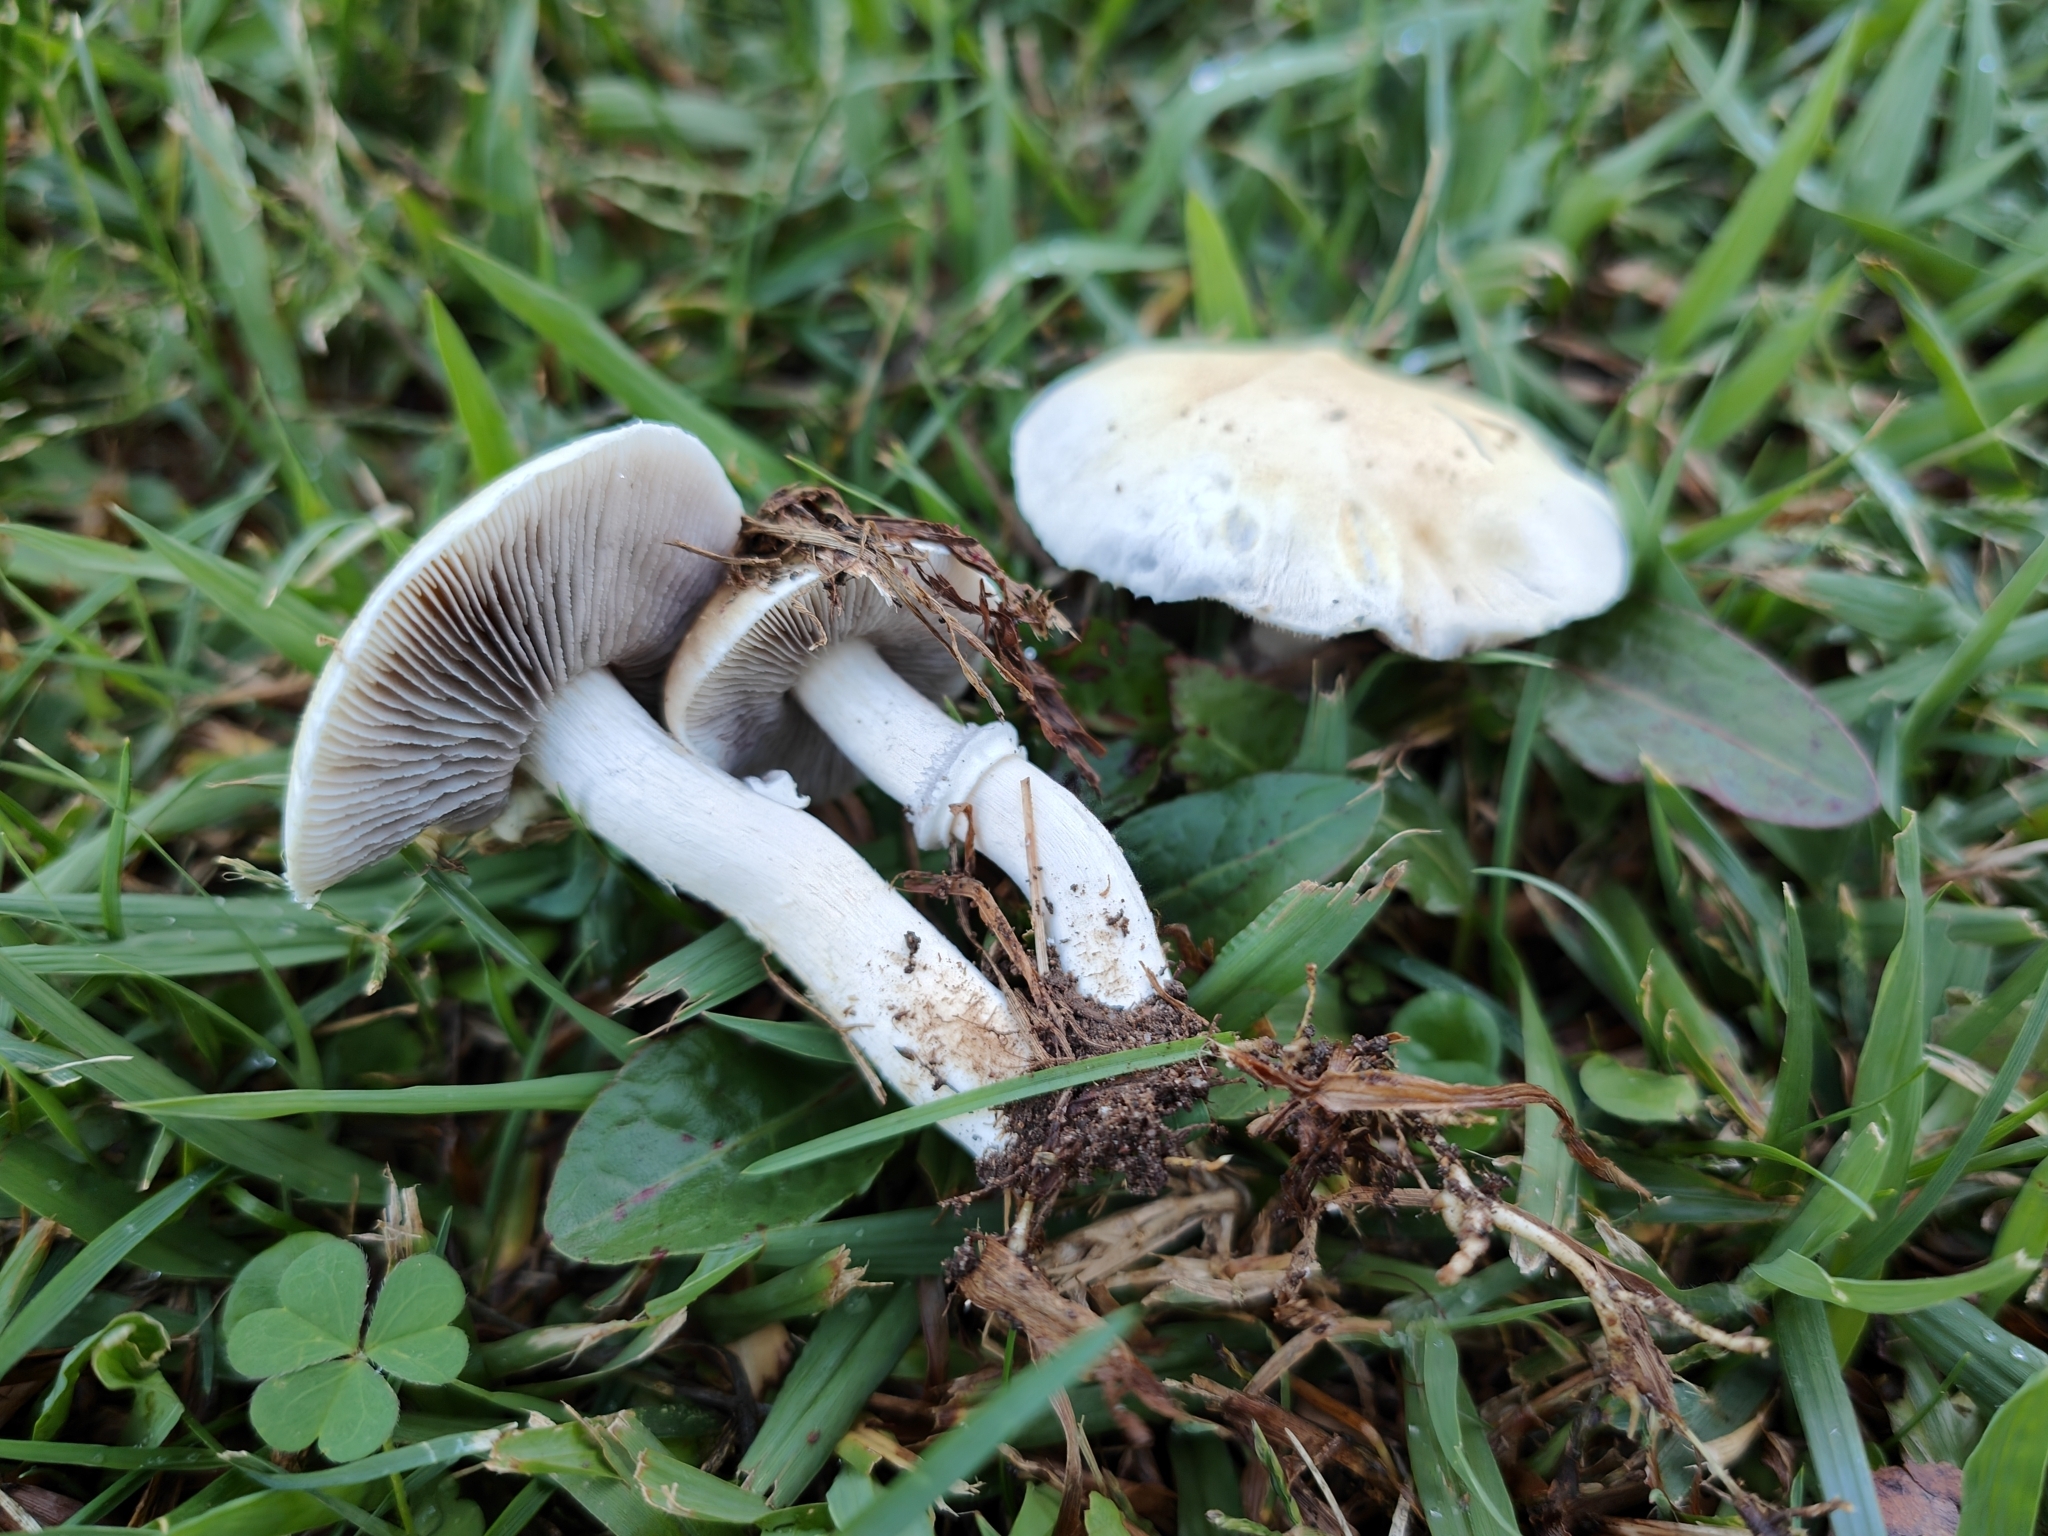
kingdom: Fungi
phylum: Basidiomycota
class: Agaricomycetes
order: Agaricales
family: Hymenogastraceae
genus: Psilocybe
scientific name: Psilocybe coronilla
